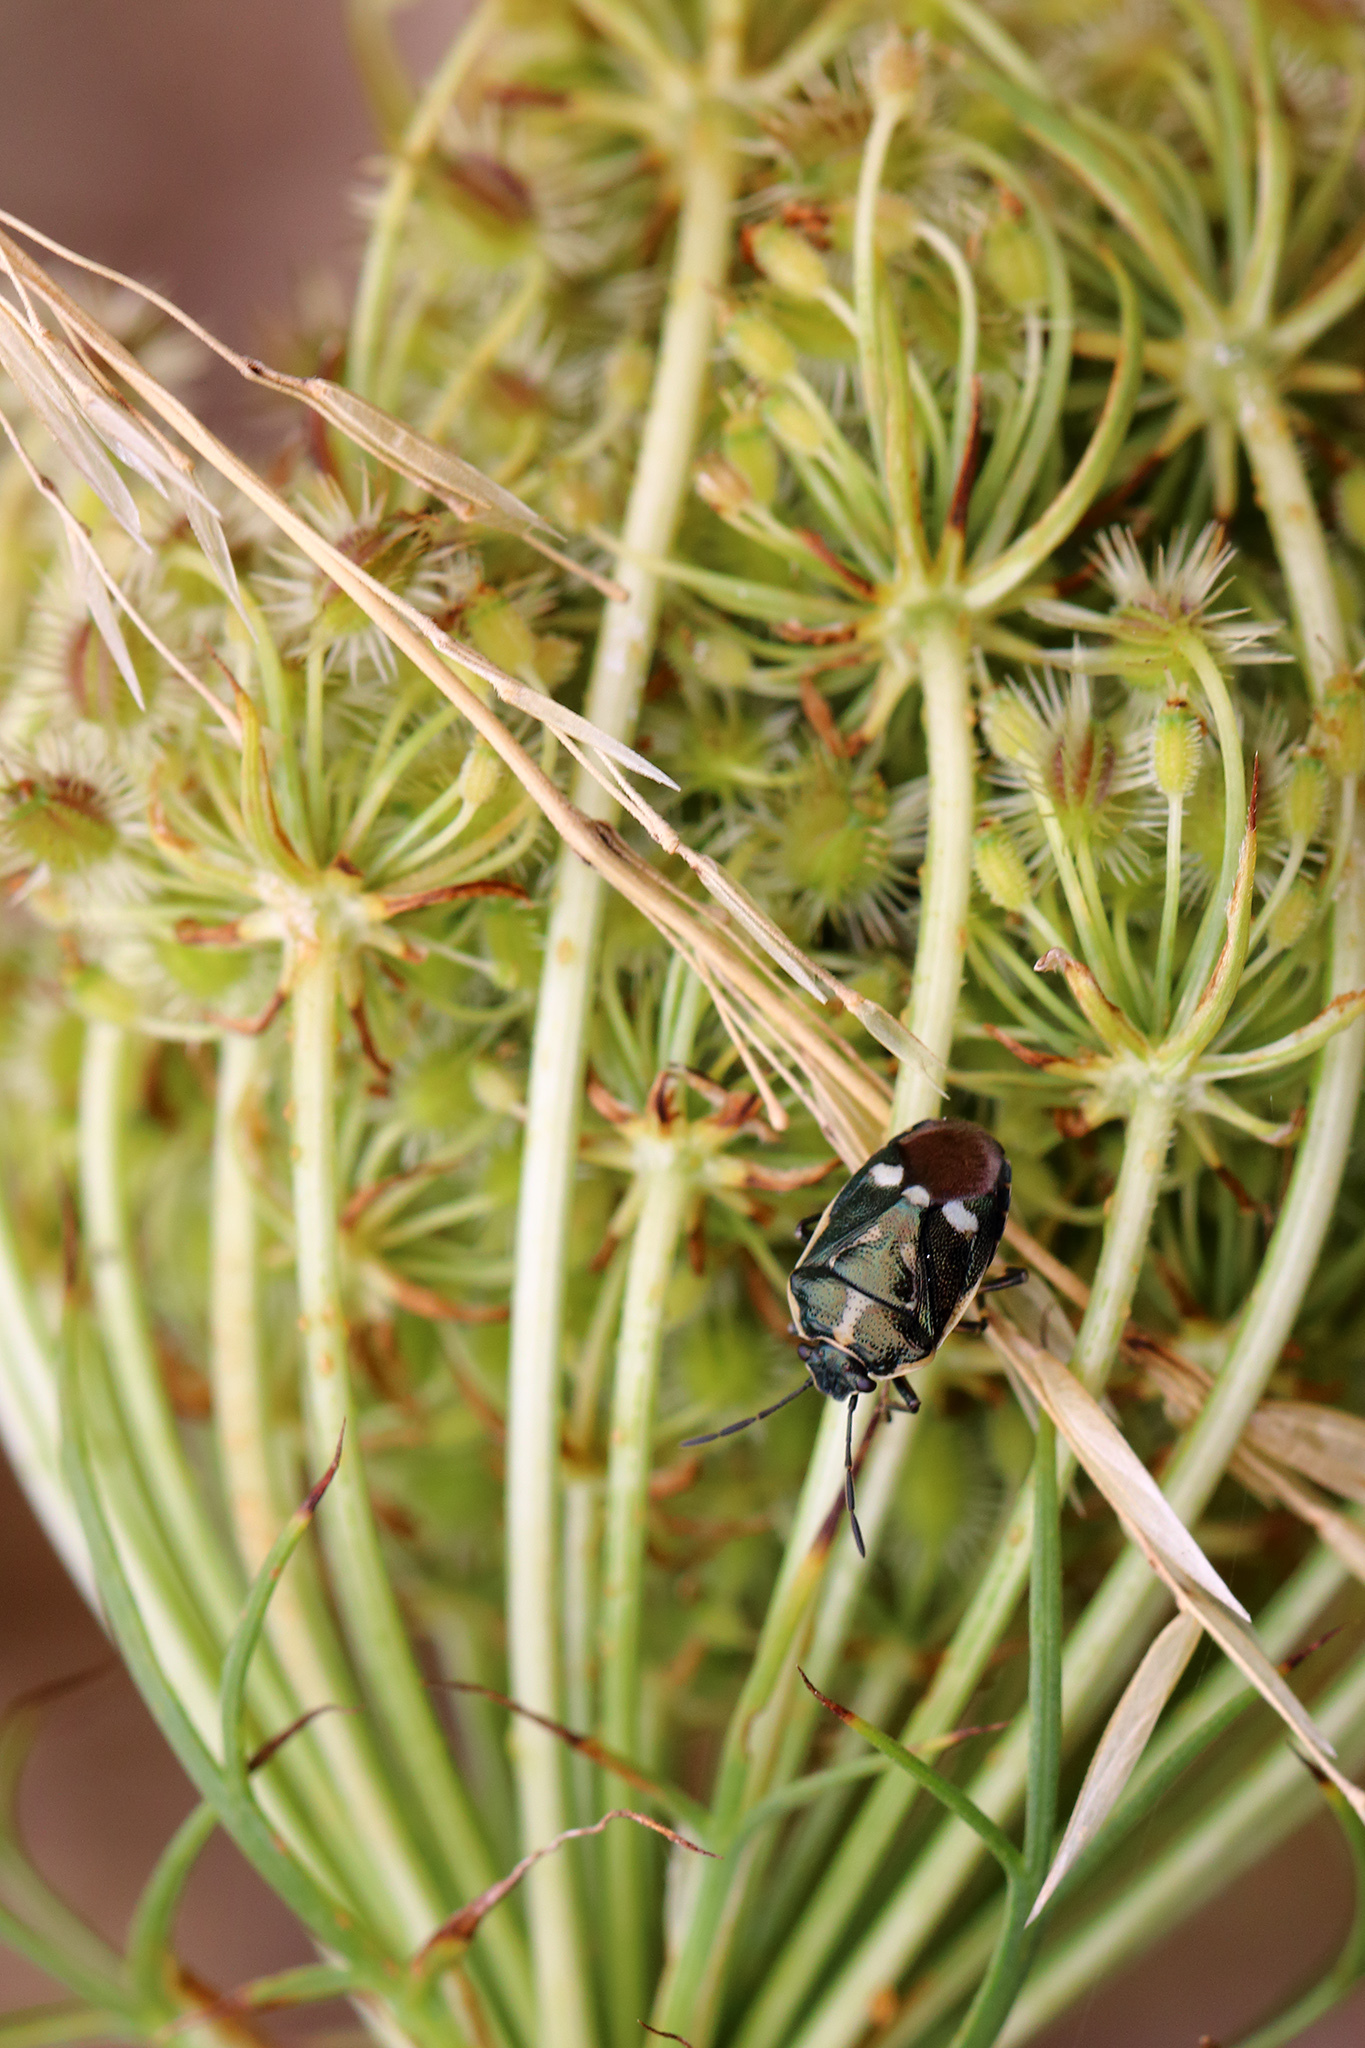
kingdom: Animalia
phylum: Arthropoda
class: Insecta
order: Hemiptera
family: Pentatomidae
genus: Eurydema
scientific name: Eurydema oleracea
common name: Cabbage bug
